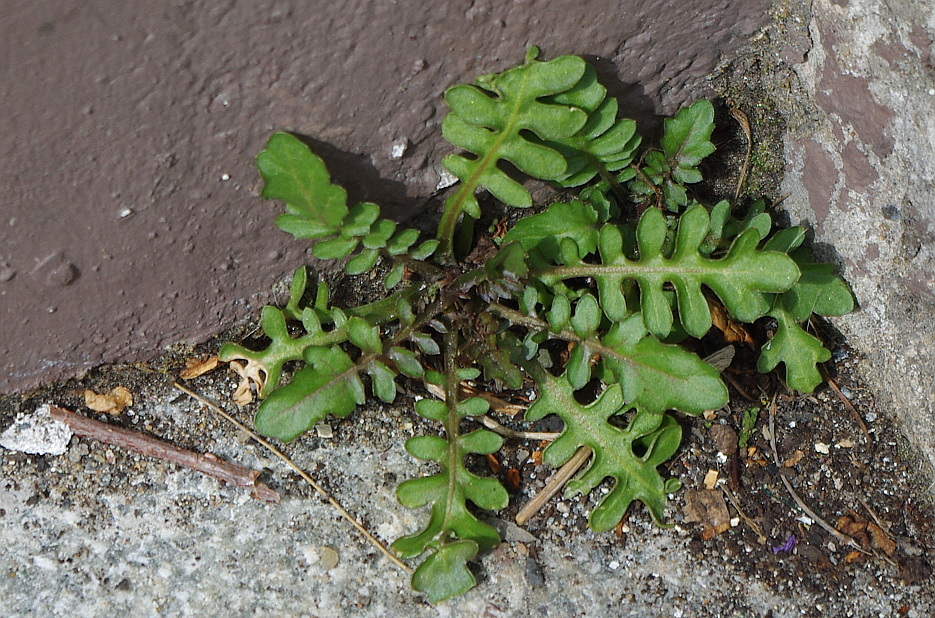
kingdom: Plantae
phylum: Tracheophyta
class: Magnoliopsida
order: Brassicales
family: Brassicaceae
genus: Rorippa
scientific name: Rorippa palustris
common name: Marsh yellow-cress
